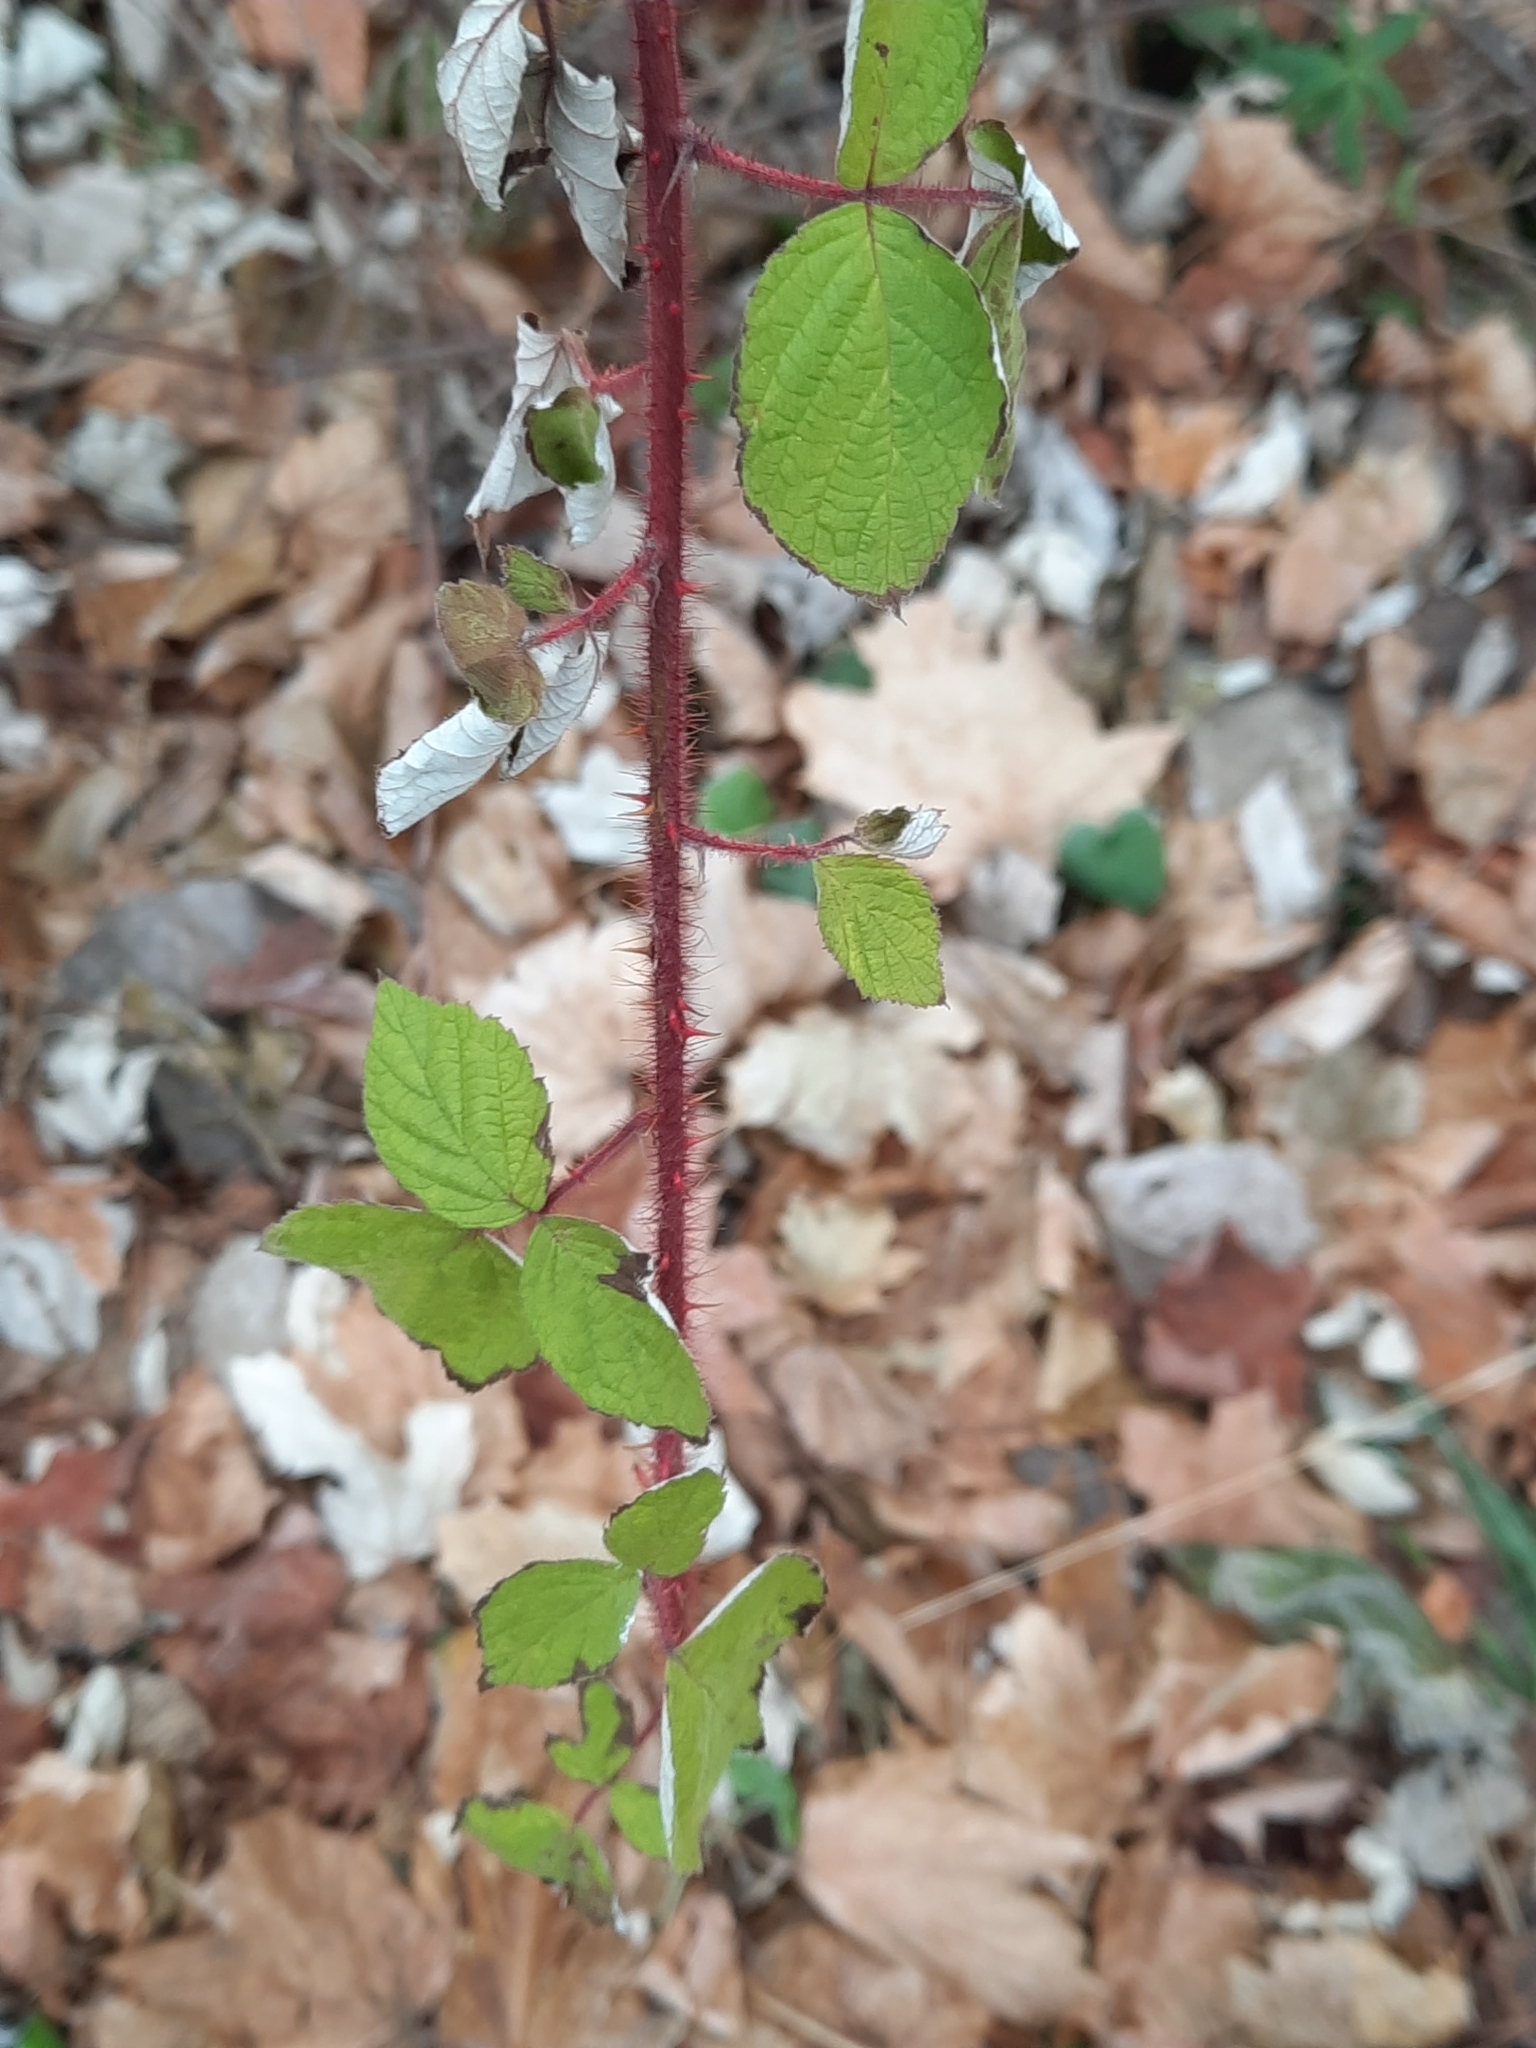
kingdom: Plantae
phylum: Tracheophyta
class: Magnoliopsida
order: Rosales
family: Rosaceae
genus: Rubus
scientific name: Rubus phoenicolasius
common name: Japanese wineberry
